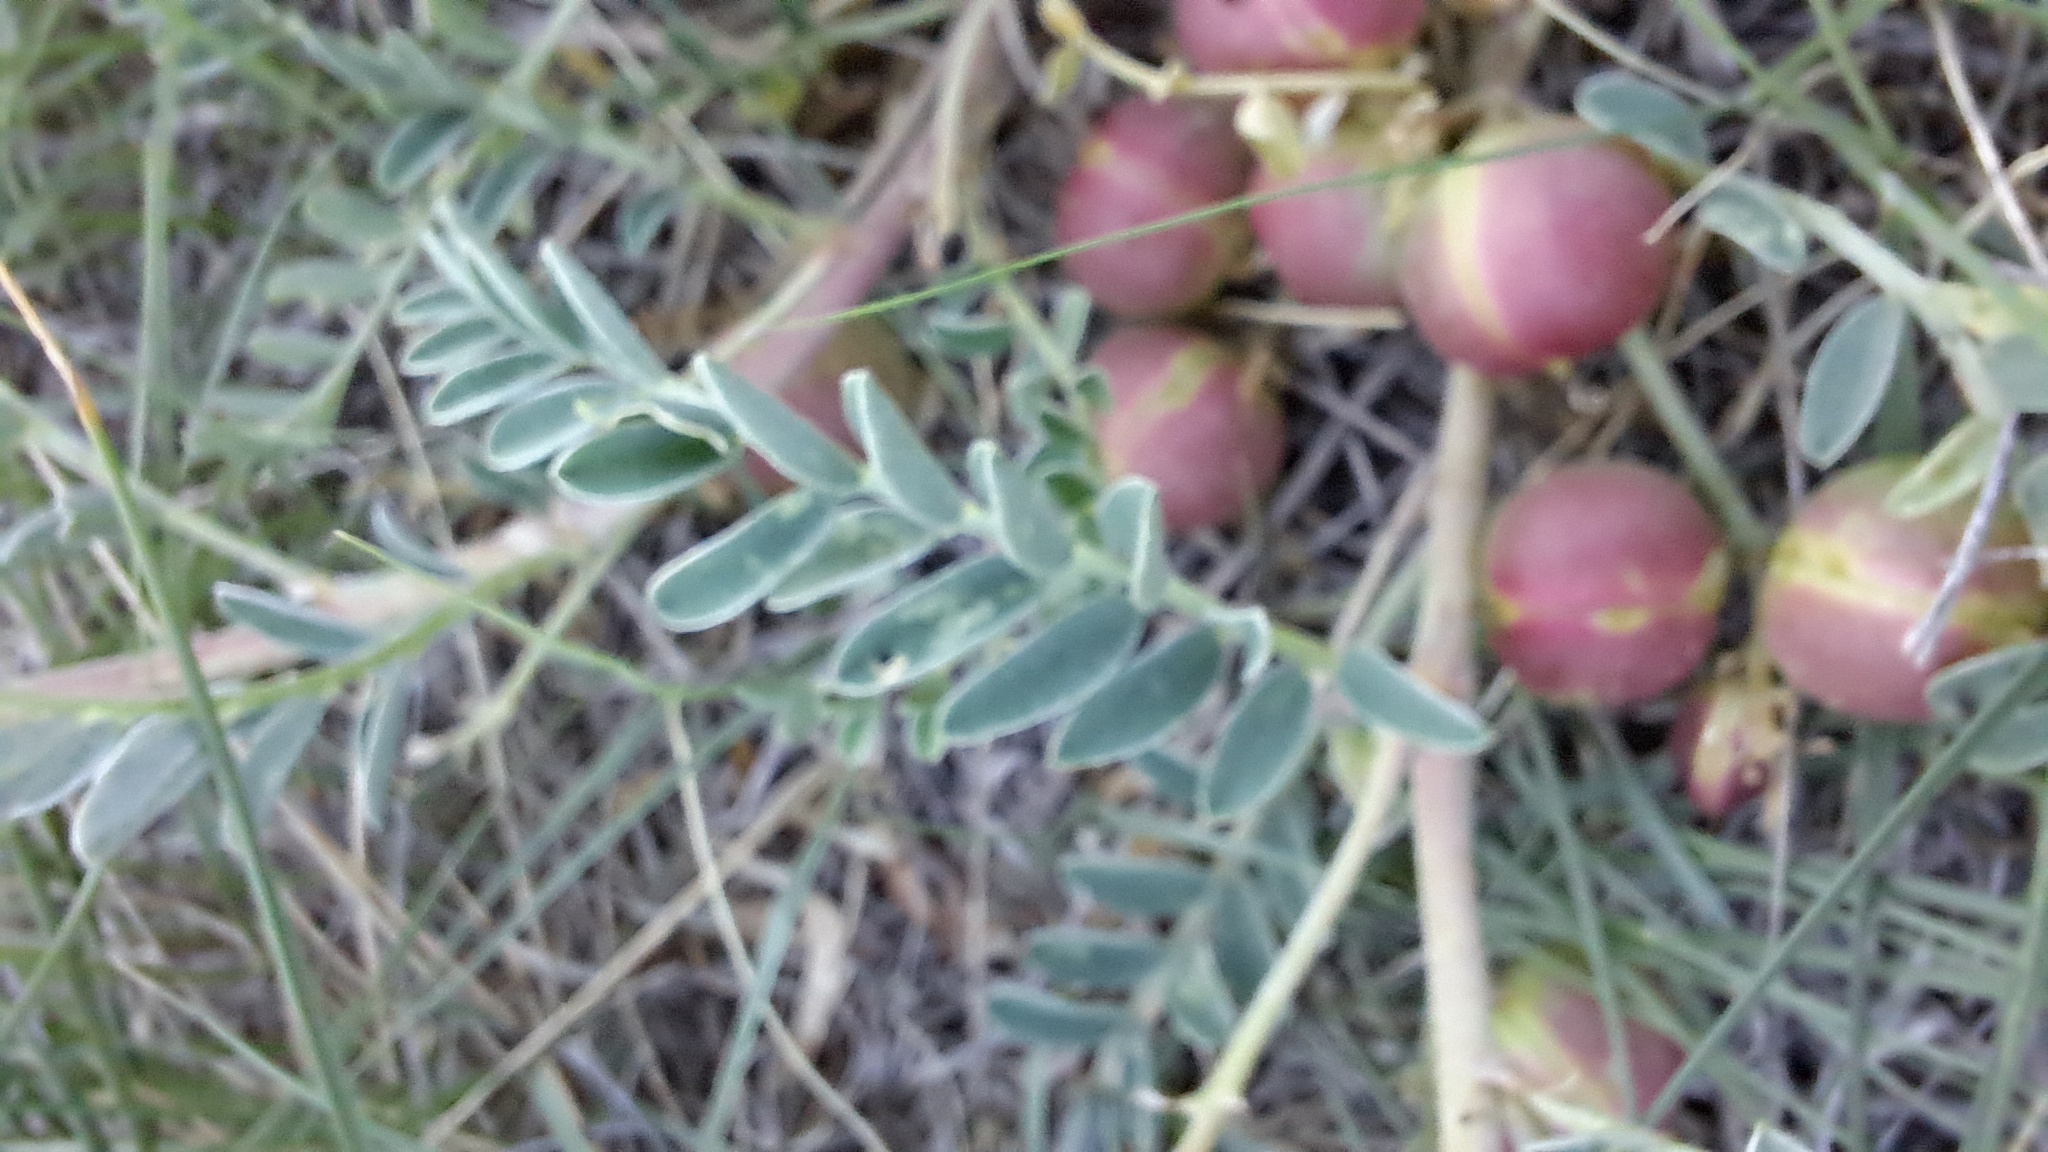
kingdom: Plantae
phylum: Tracheophyta
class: Magnoliopsida
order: Fabales
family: Fabaceae
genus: Astragalus
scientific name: Astragalus crassicarpus
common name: Ground-plum milk-vetch
